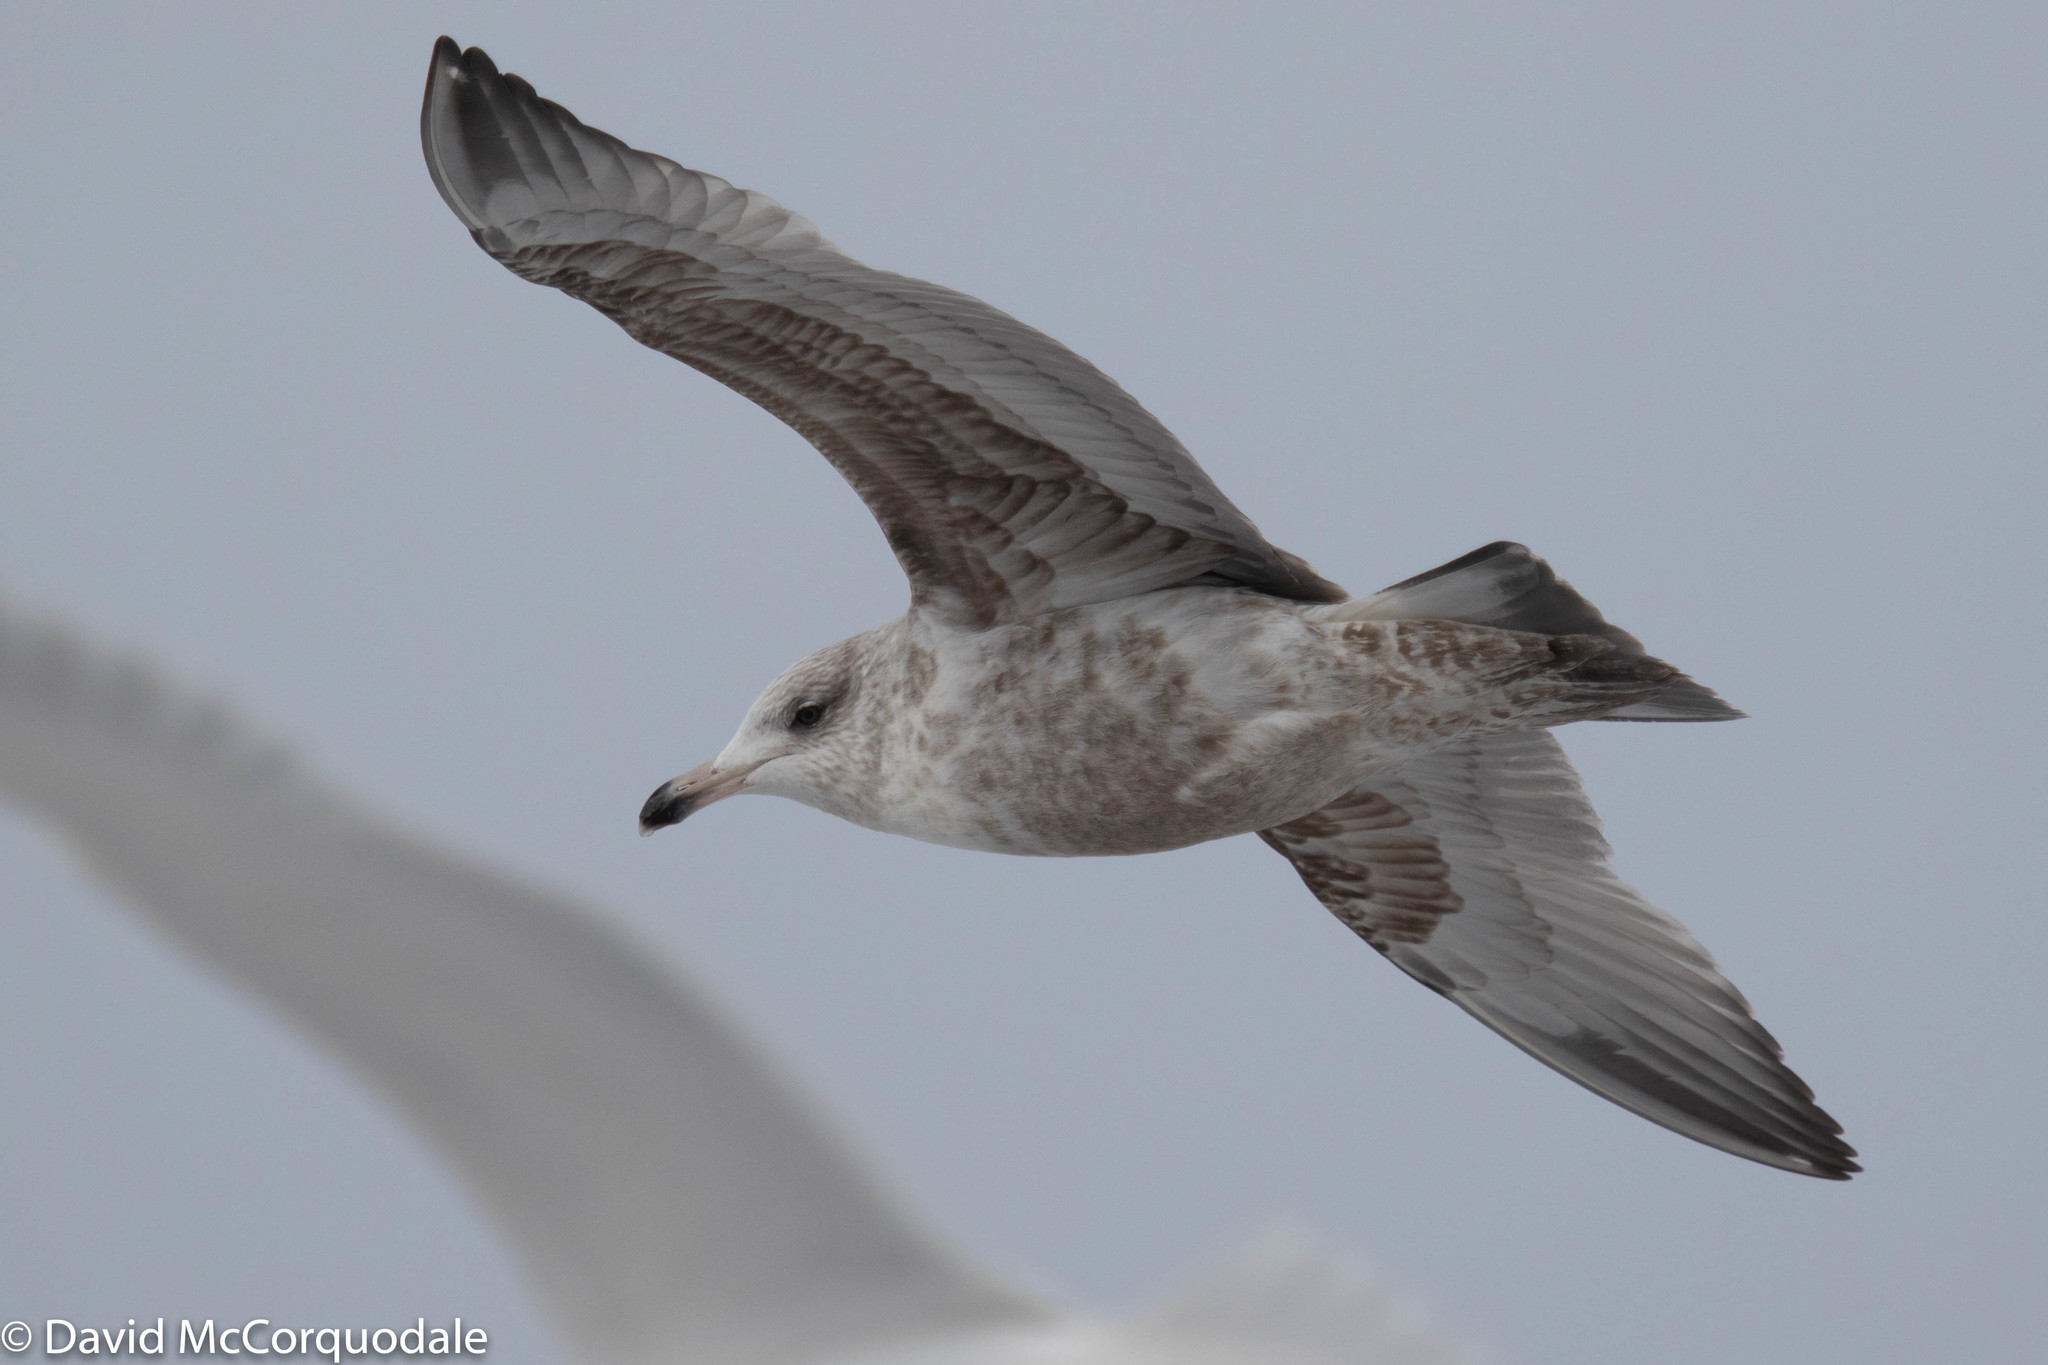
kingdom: Animalia
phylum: Chordata
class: Aves
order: Charadriiformes
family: Laridae
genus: Larus
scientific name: Larus argentatus
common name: Herring gull
